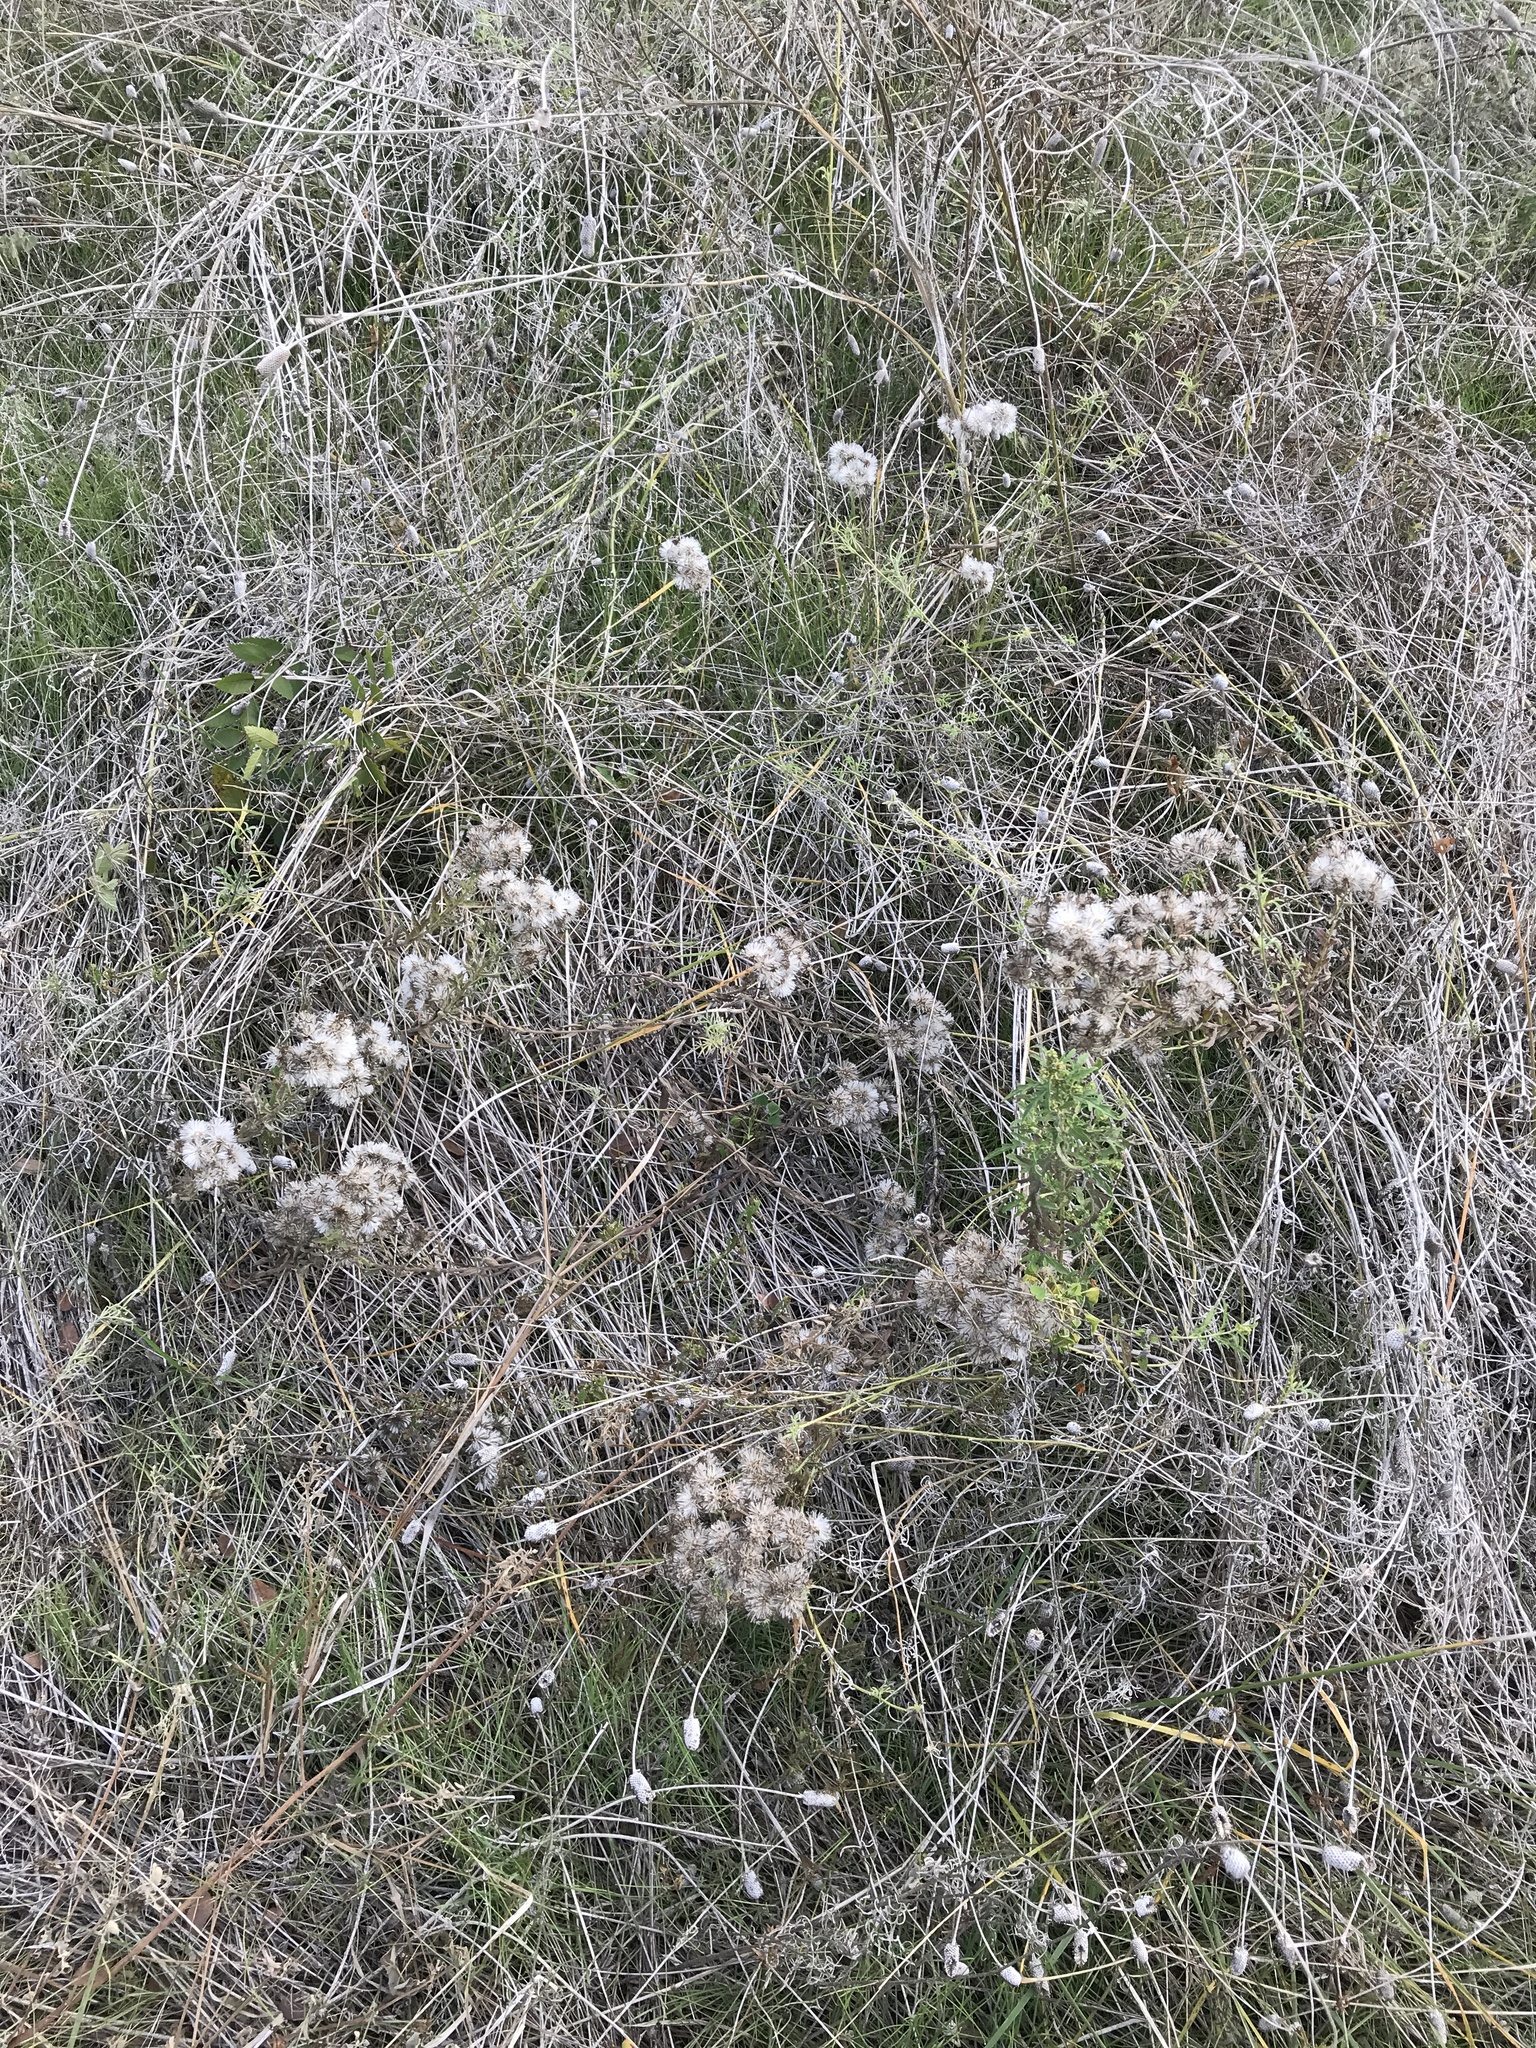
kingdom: Plantae
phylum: Tracheophyta
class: Magnoliopsida
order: Asterales
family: Asteraceae
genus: Brickellia
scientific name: Brickellia eupatorioides
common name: False boneset
